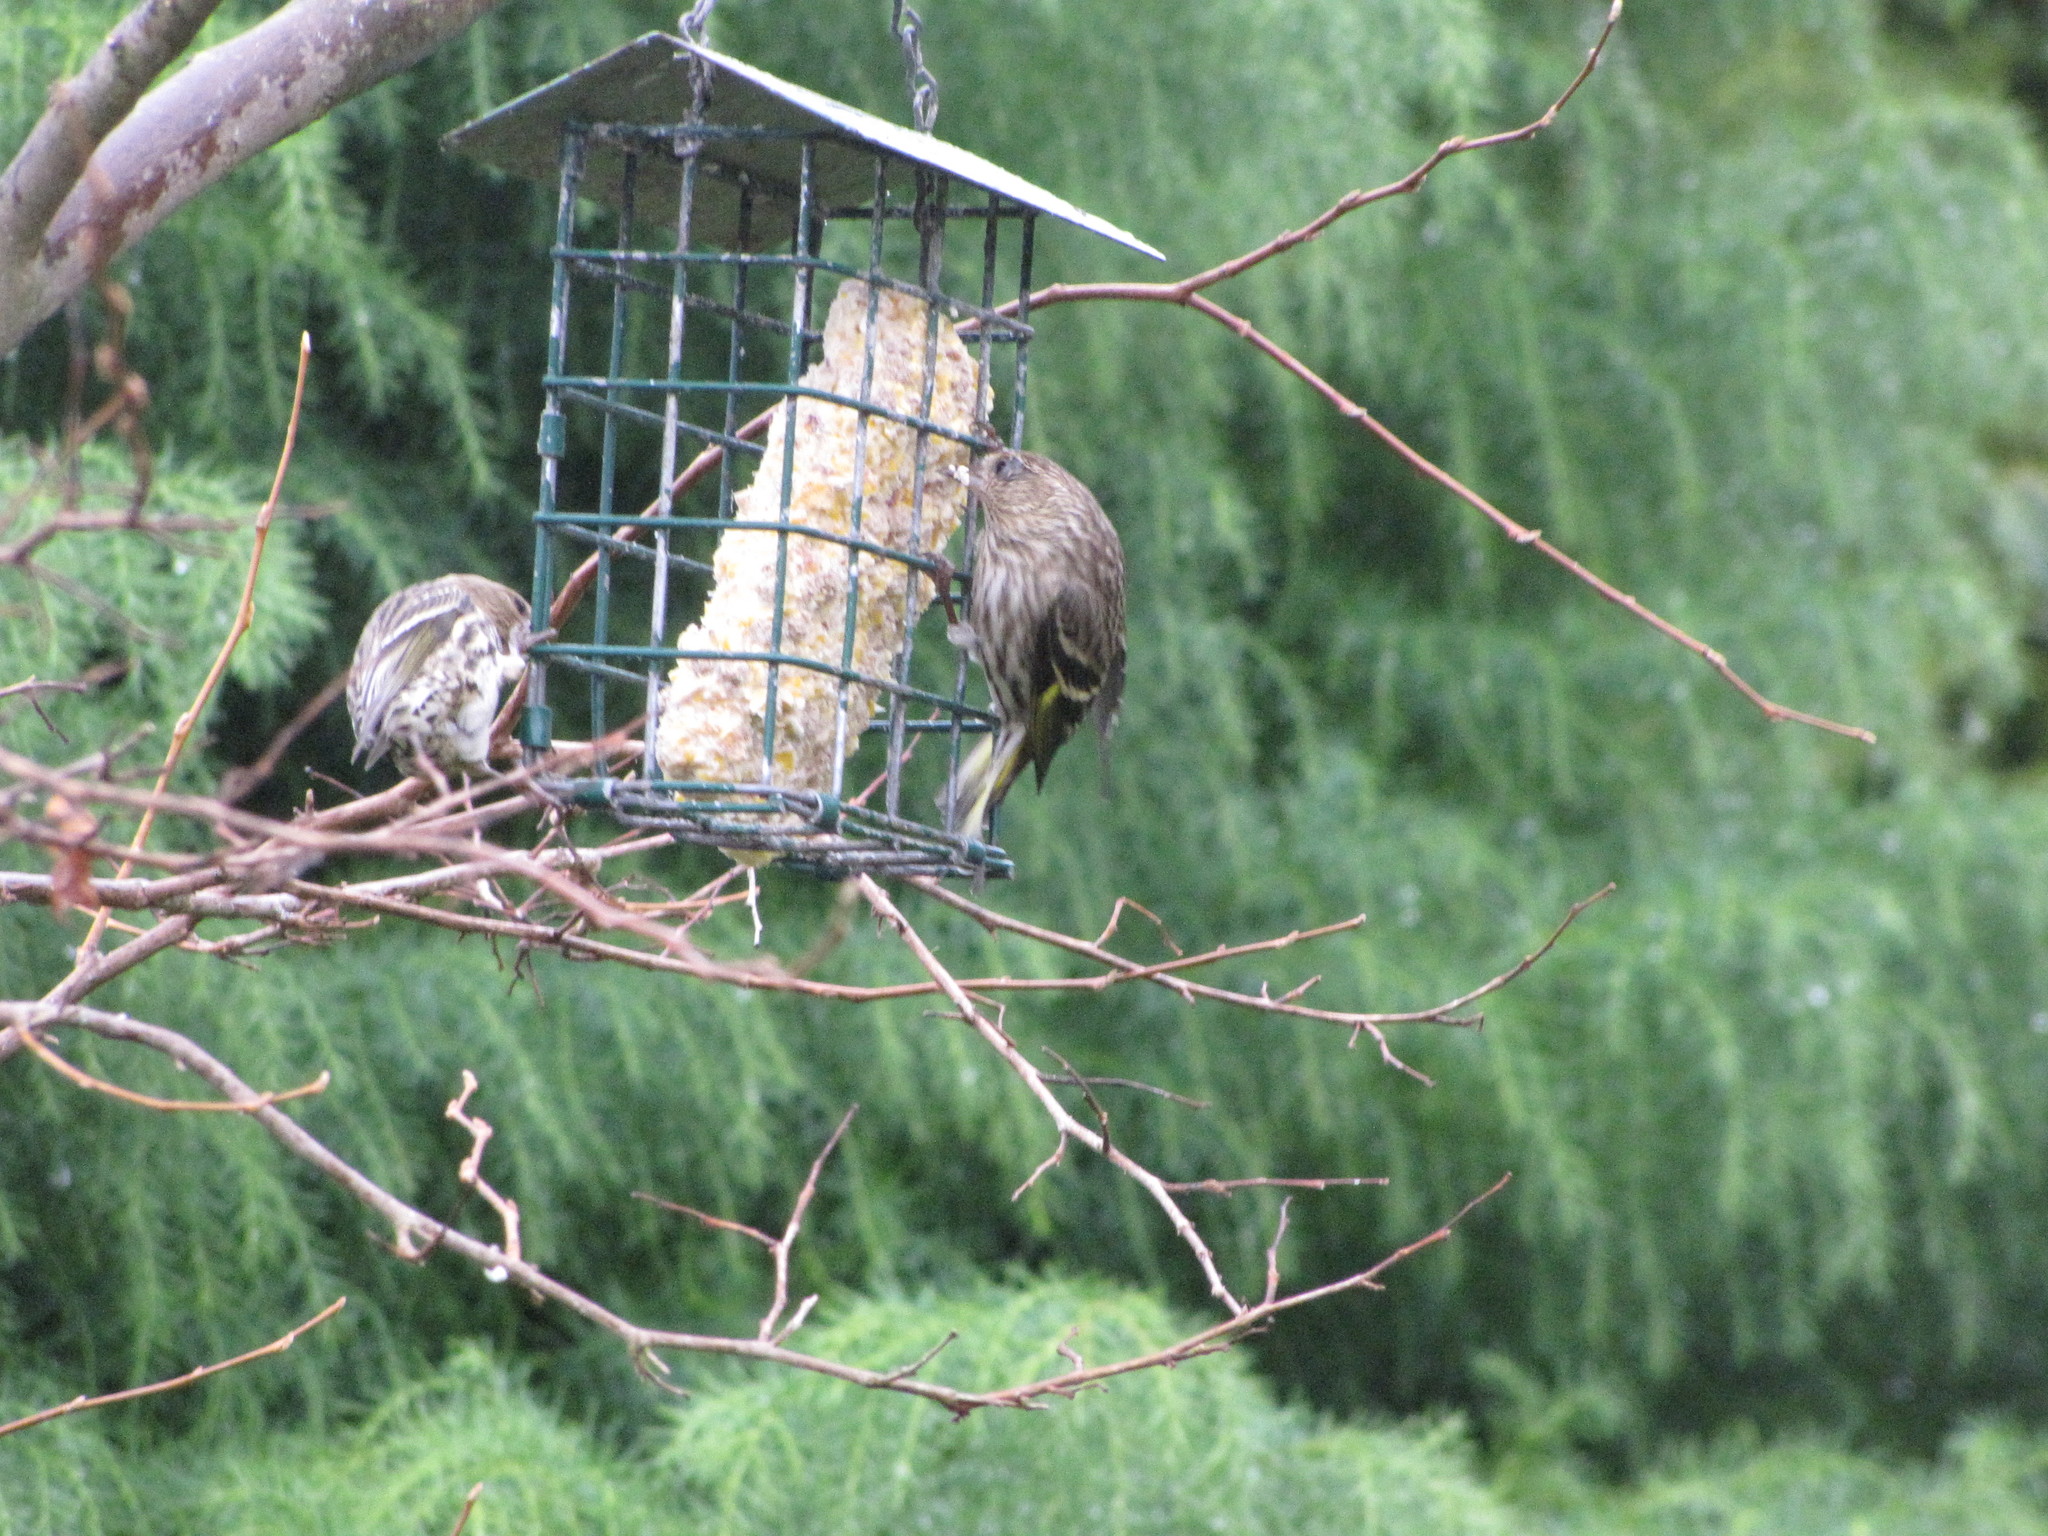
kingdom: Animalia
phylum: Chordata
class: Aves
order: Passeriformes
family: Fringillidae
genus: Spinus
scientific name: Spinus pinus
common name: Pine siskin
